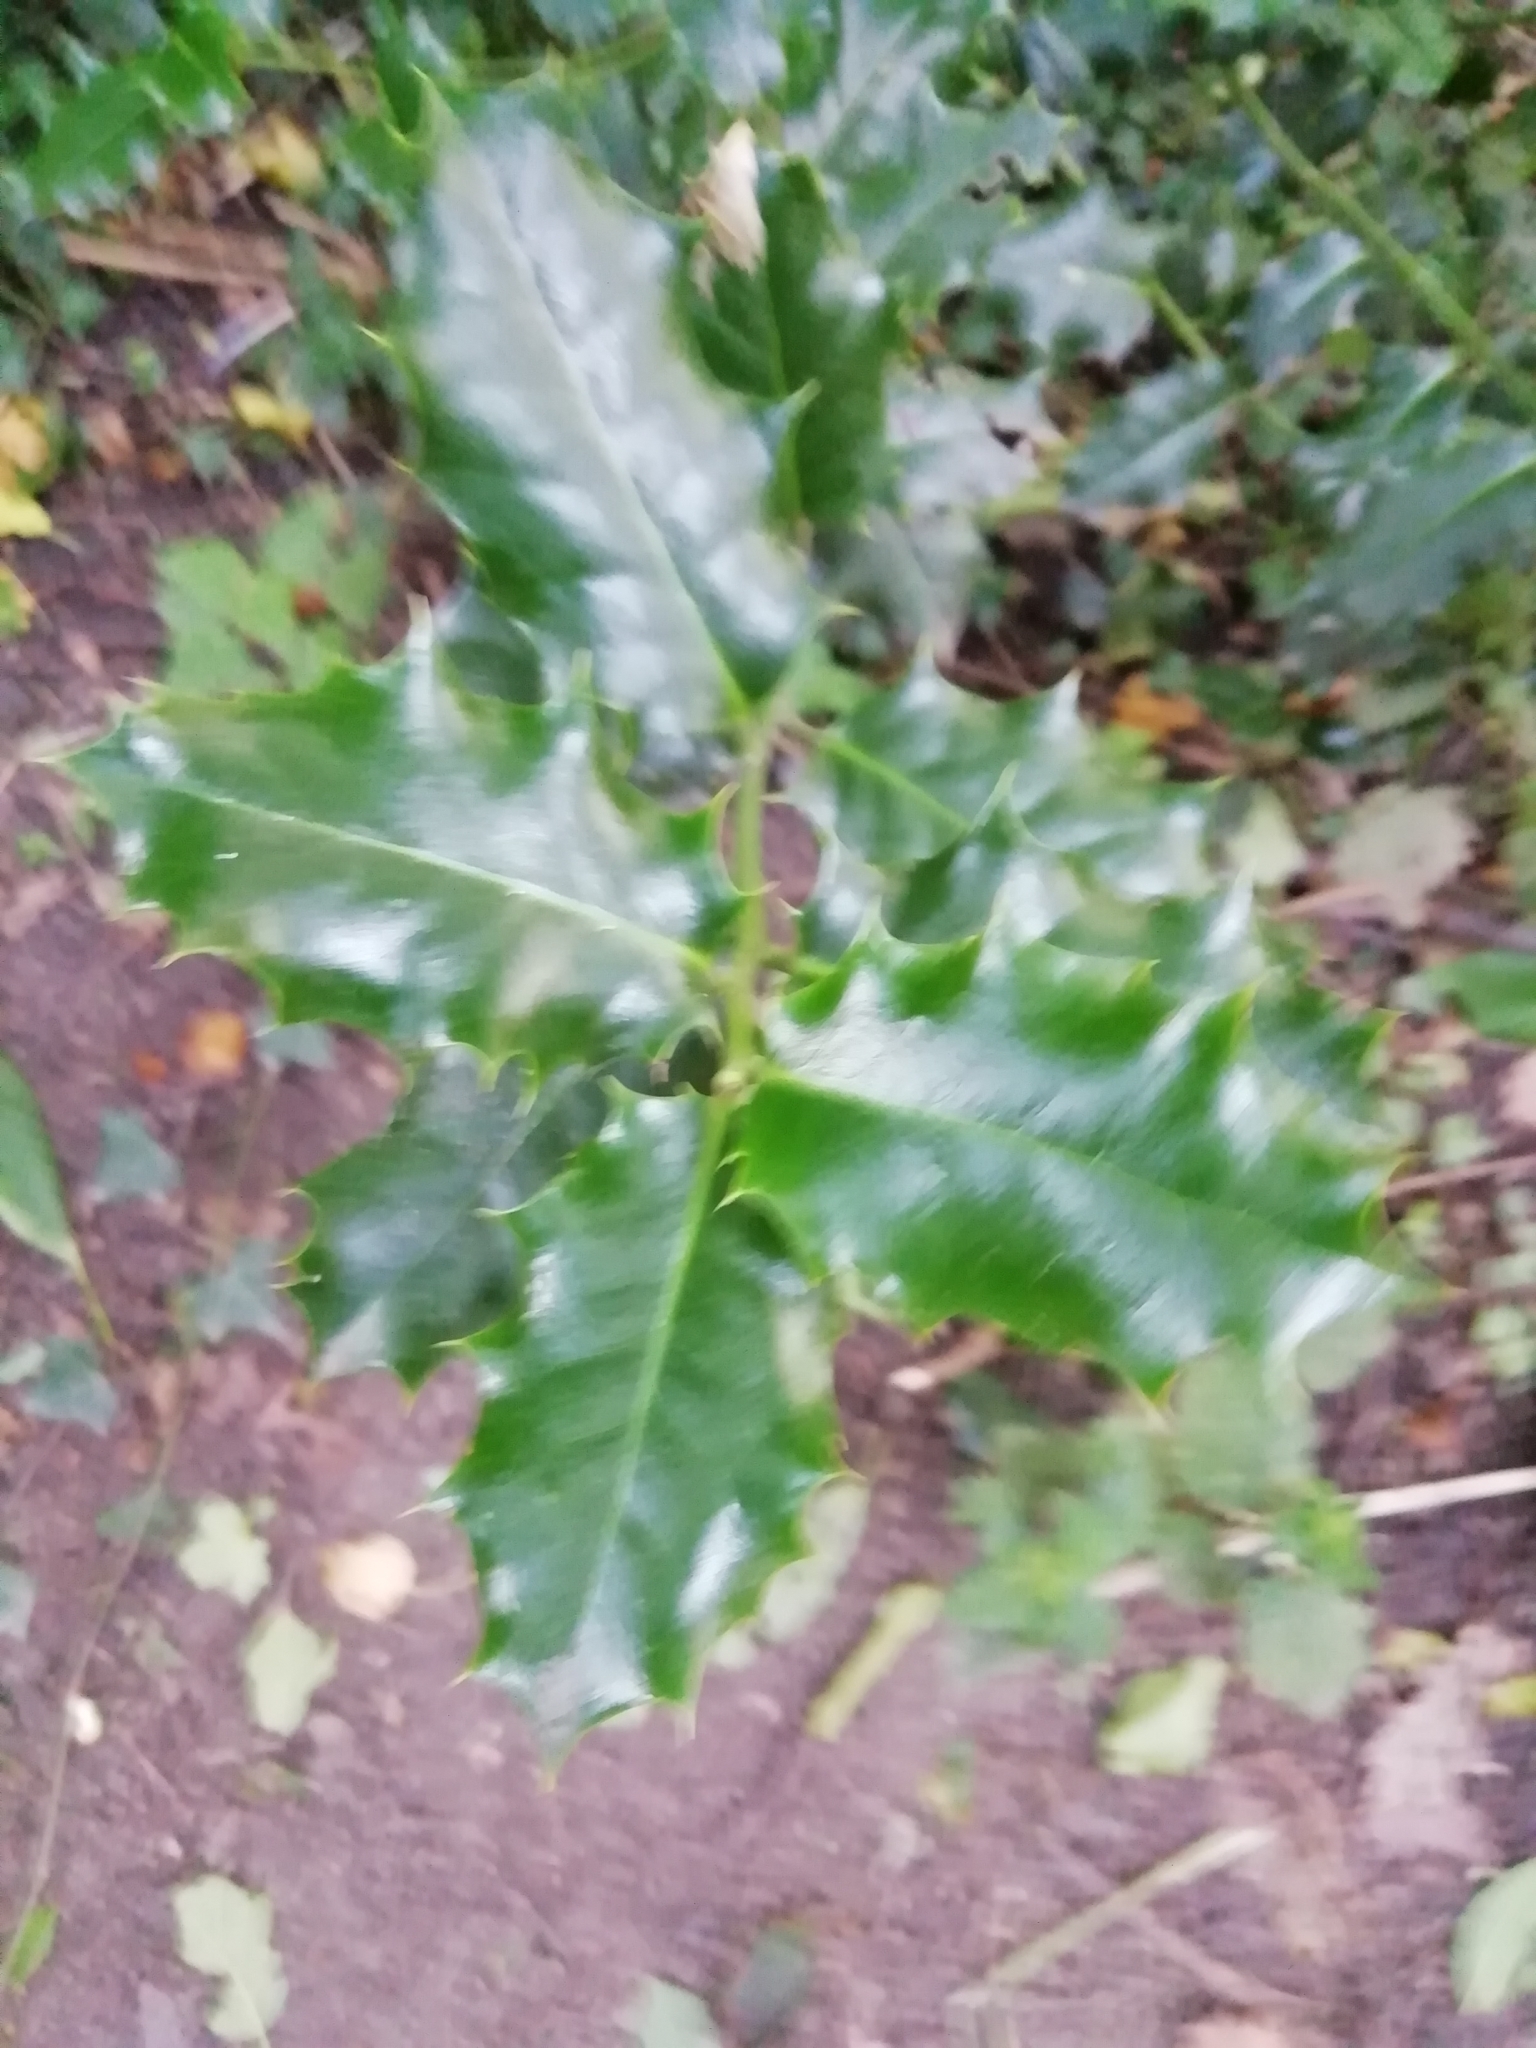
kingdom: Plantae
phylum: Tracheophyta
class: Magnoliopsida
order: Aquifoliales
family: Aquifoliaceae
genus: Ilex
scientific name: Ilex aquifolium
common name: English holly
